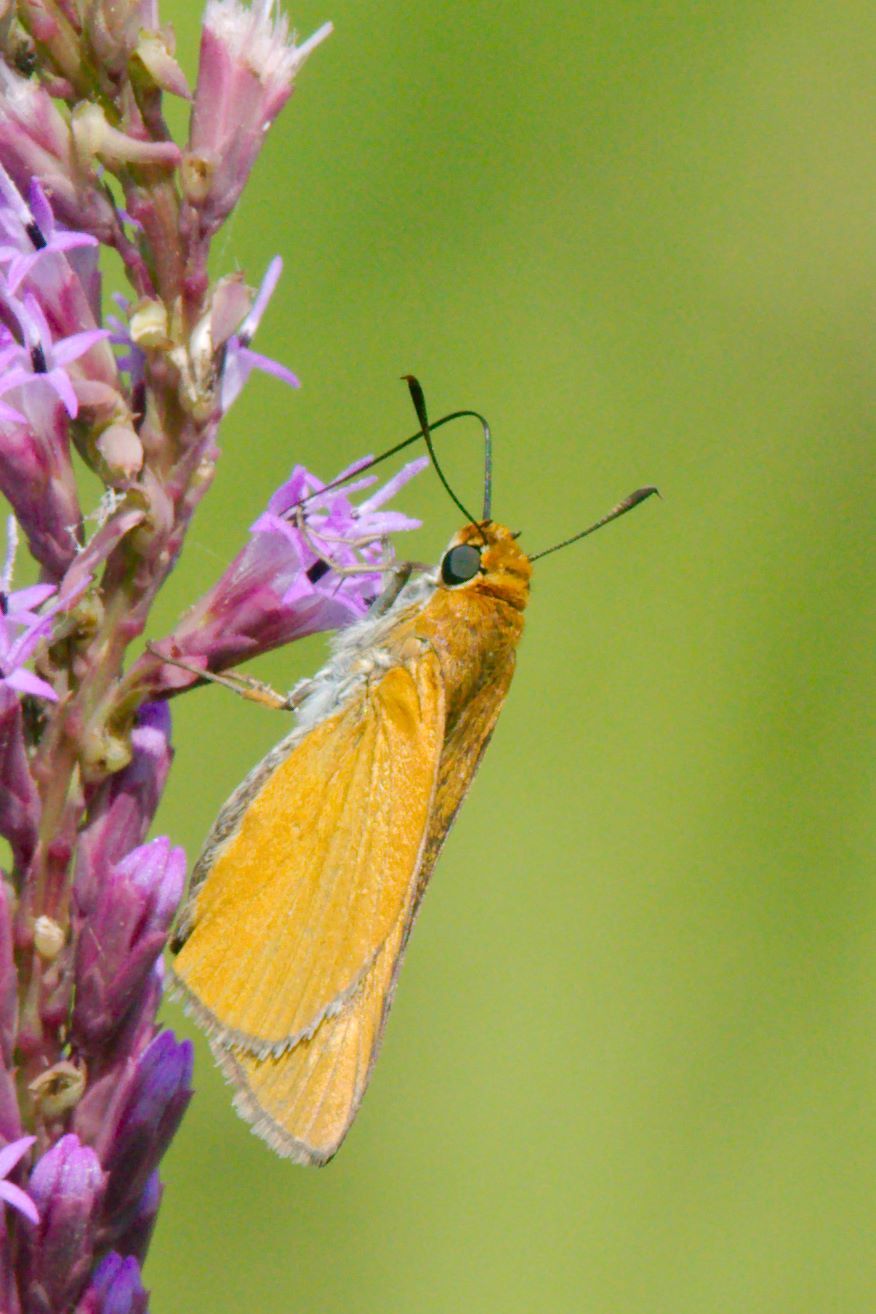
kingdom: Animalia
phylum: Arthropoda
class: Insecta
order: Lepidoptera
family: Hesperiidae
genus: Euphyes
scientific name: Euphyes arpa
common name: Palmetto skipper
